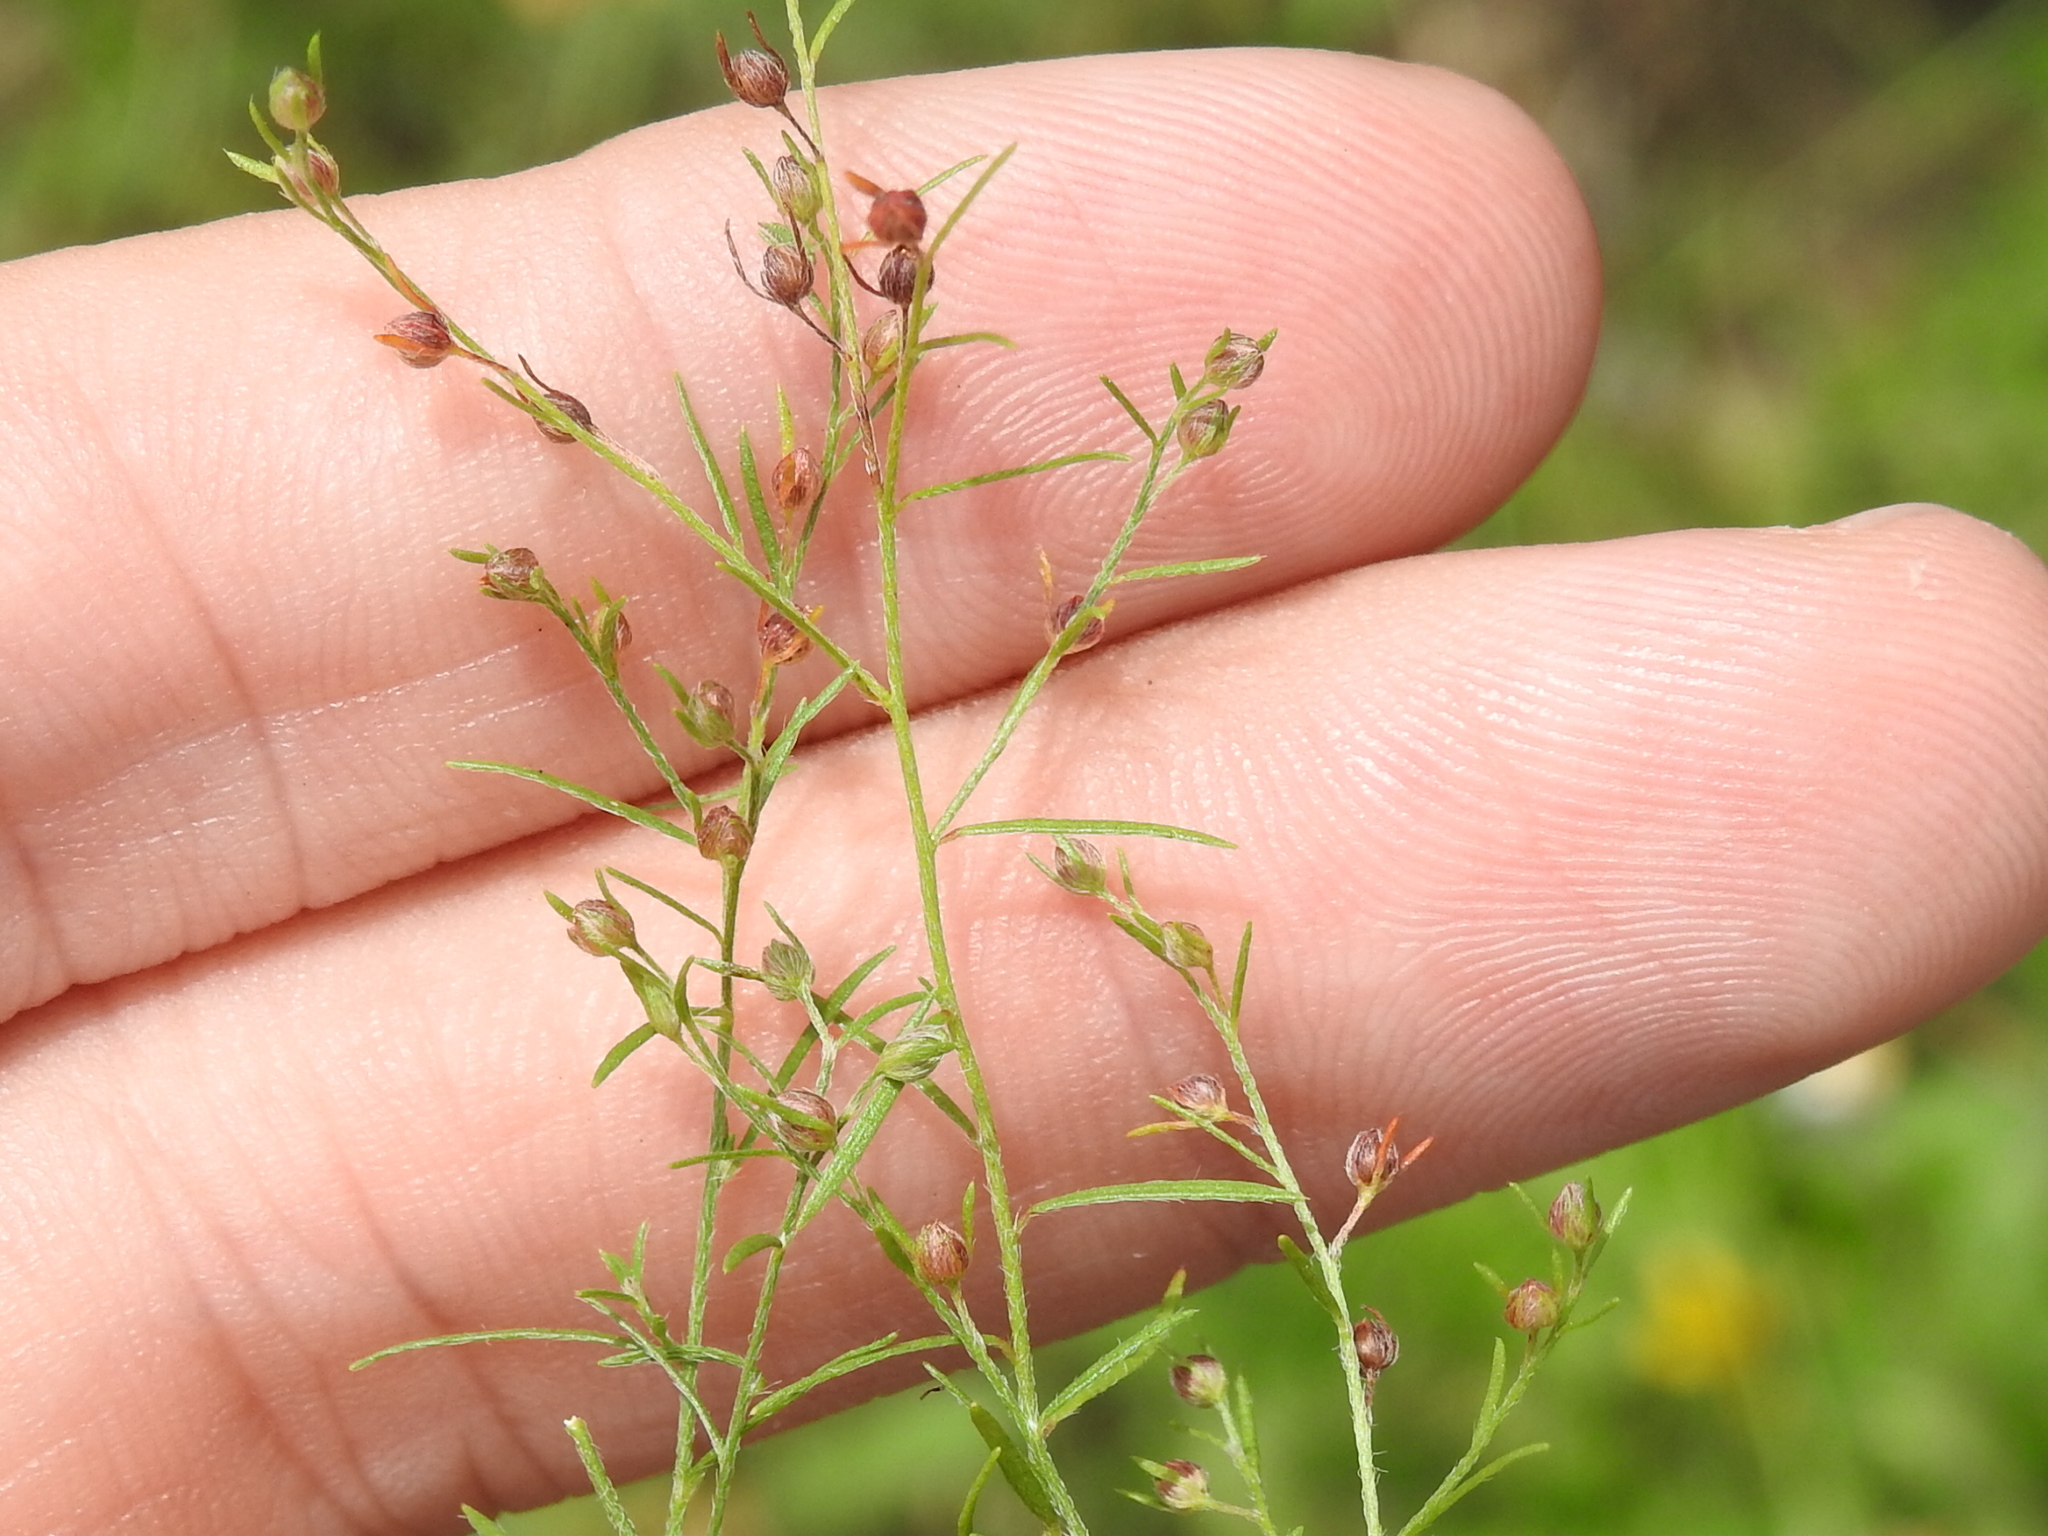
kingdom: Plantae
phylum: Tracheophyta
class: Magnoliopsida
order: Malvales
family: Cistaceae
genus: Lechea
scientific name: Lechea tenuifolia
